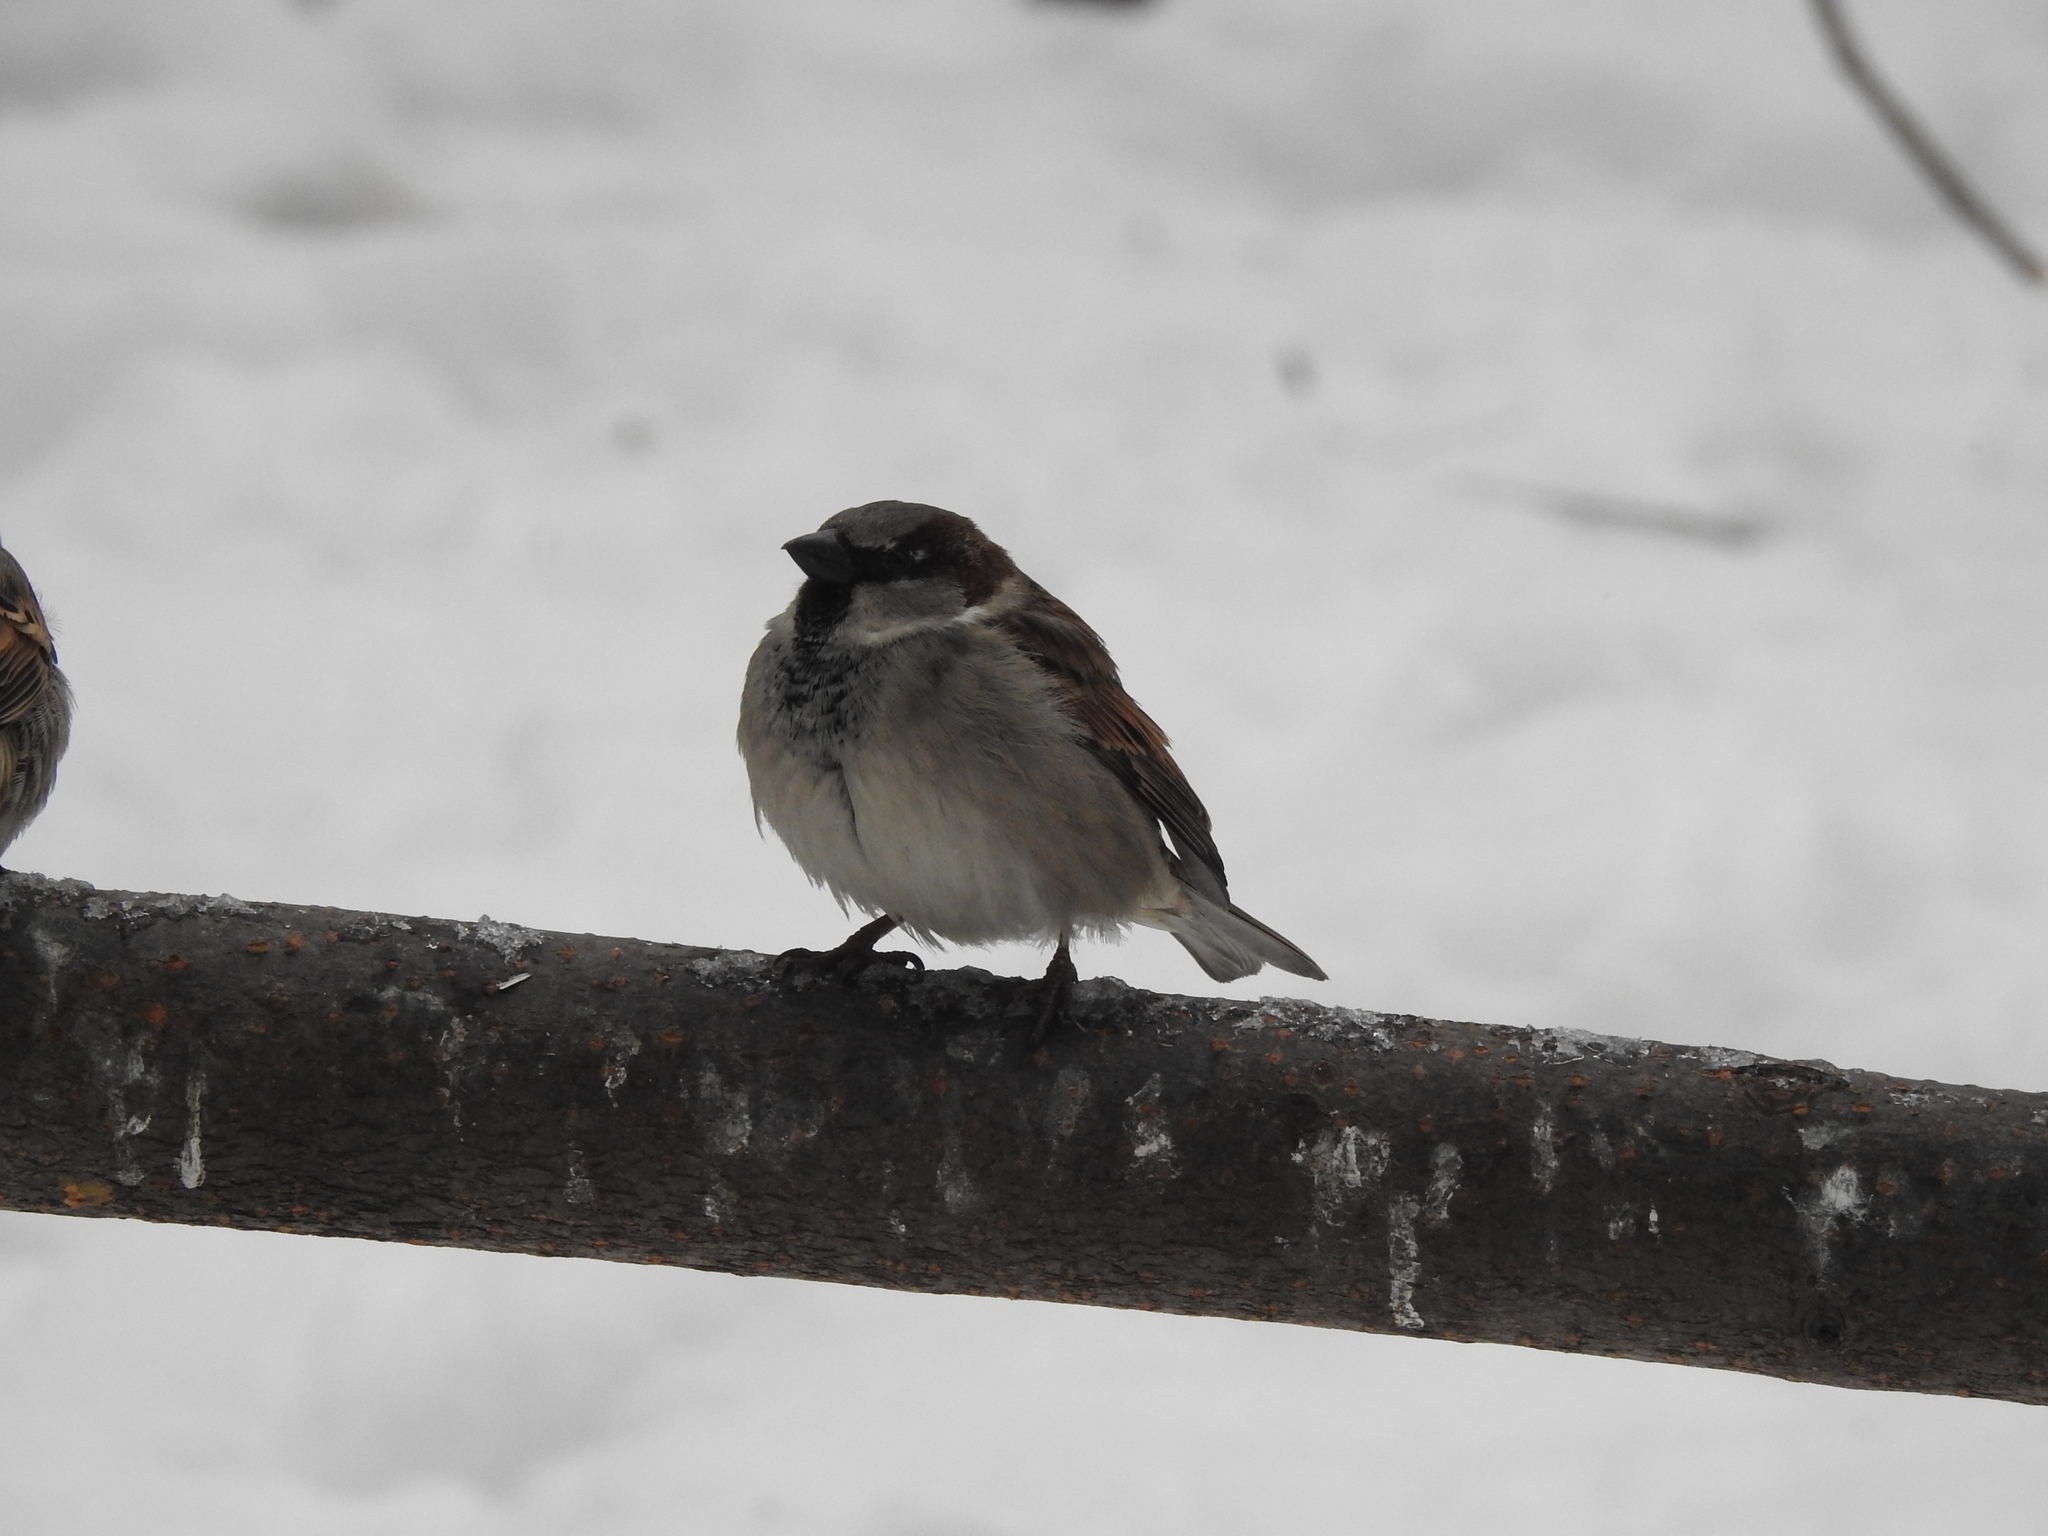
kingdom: Animalia
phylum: Chordata
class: Aves
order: Passeriformes
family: Passeridae
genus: Passer
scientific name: Passer domesticus
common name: House sparrow
